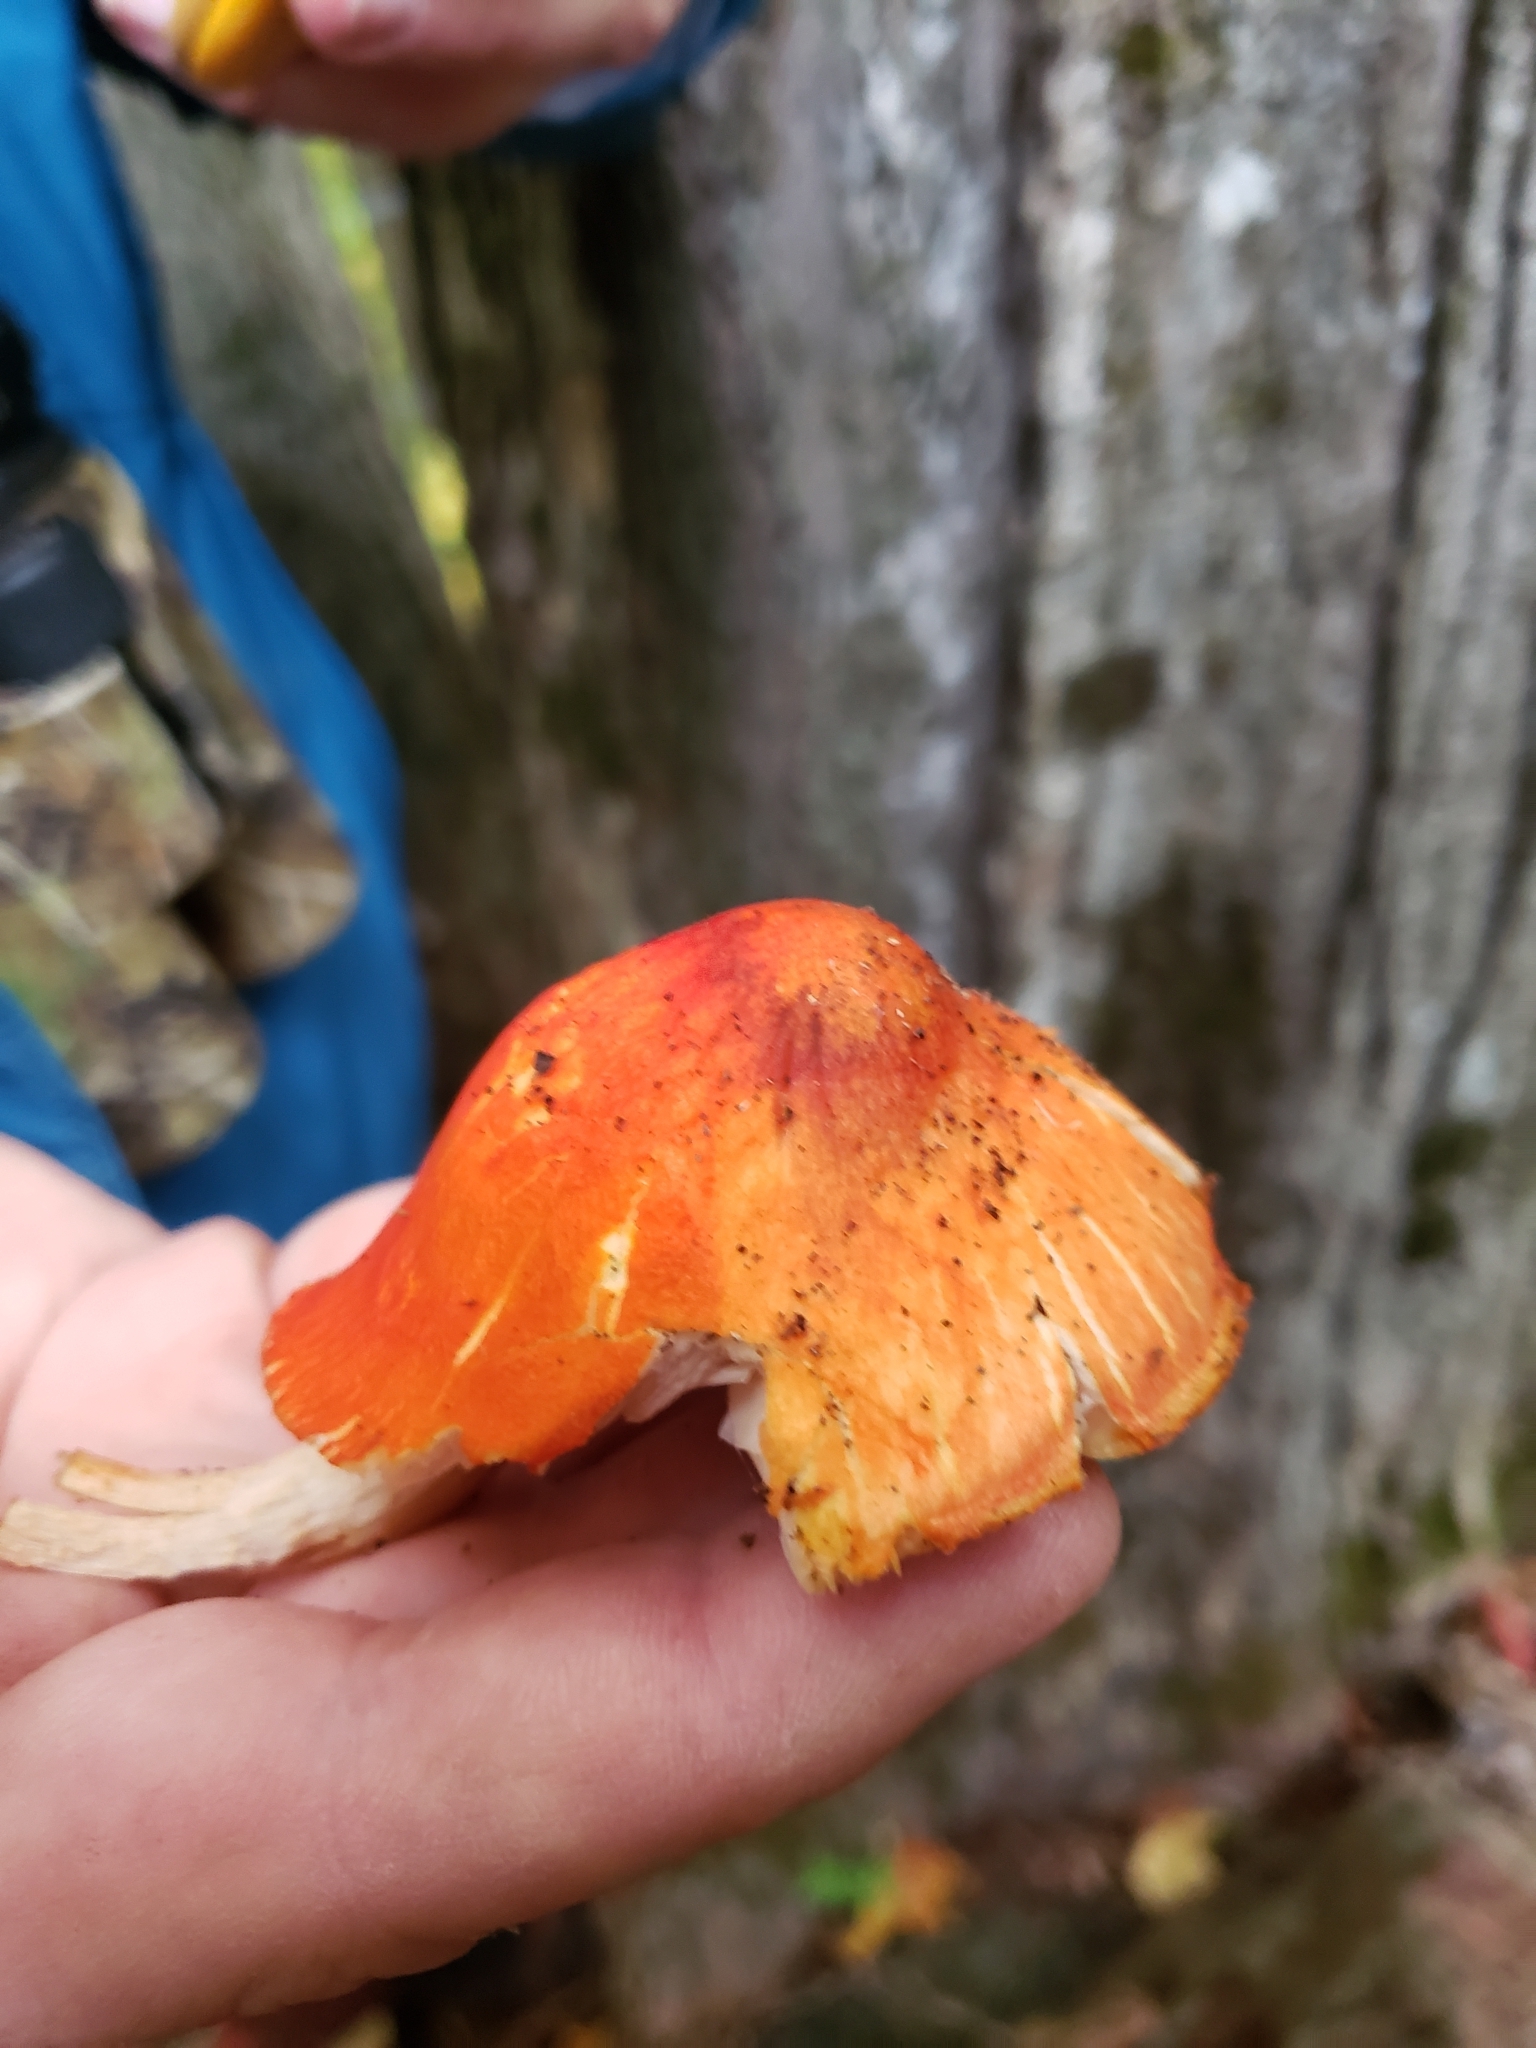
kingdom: Fungi
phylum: Basidiomycota
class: Agaricomycetes
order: Agaricales
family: Pluteaceae
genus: Pluteus
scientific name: Pluteus aurantiorugosus
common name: Flame shield
